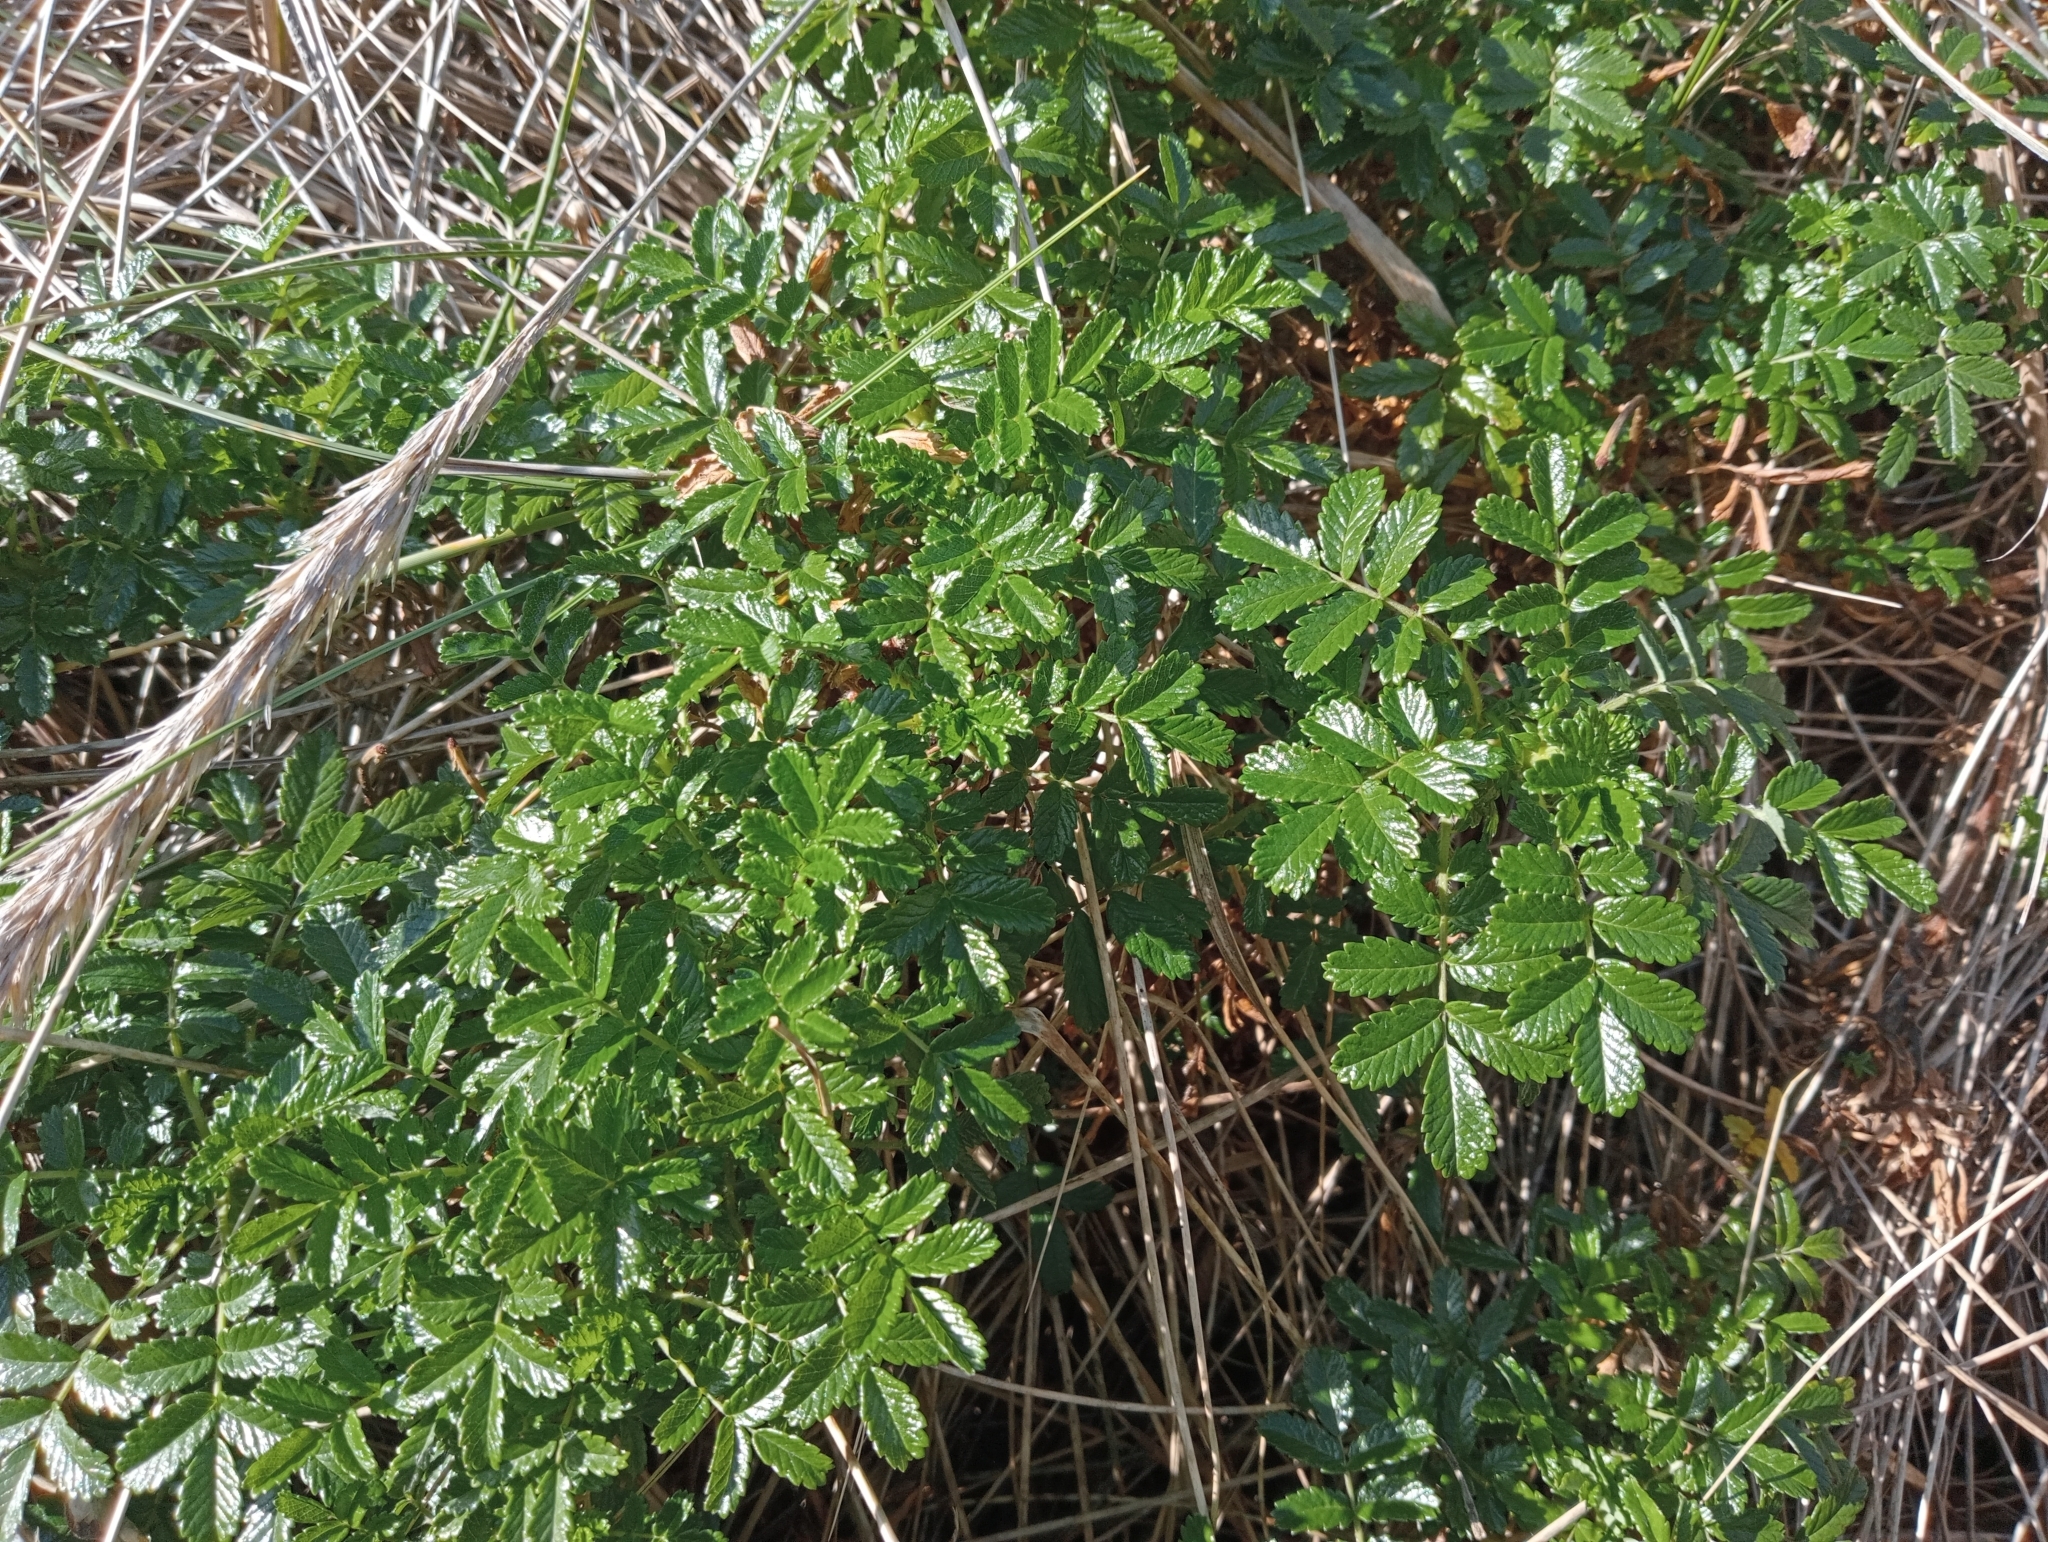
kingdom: Plantae
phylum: Tracheophyta
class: Magnoliopsida
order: Rosales
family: Rosaceae
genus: Acaena
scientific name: Acaena pallida
